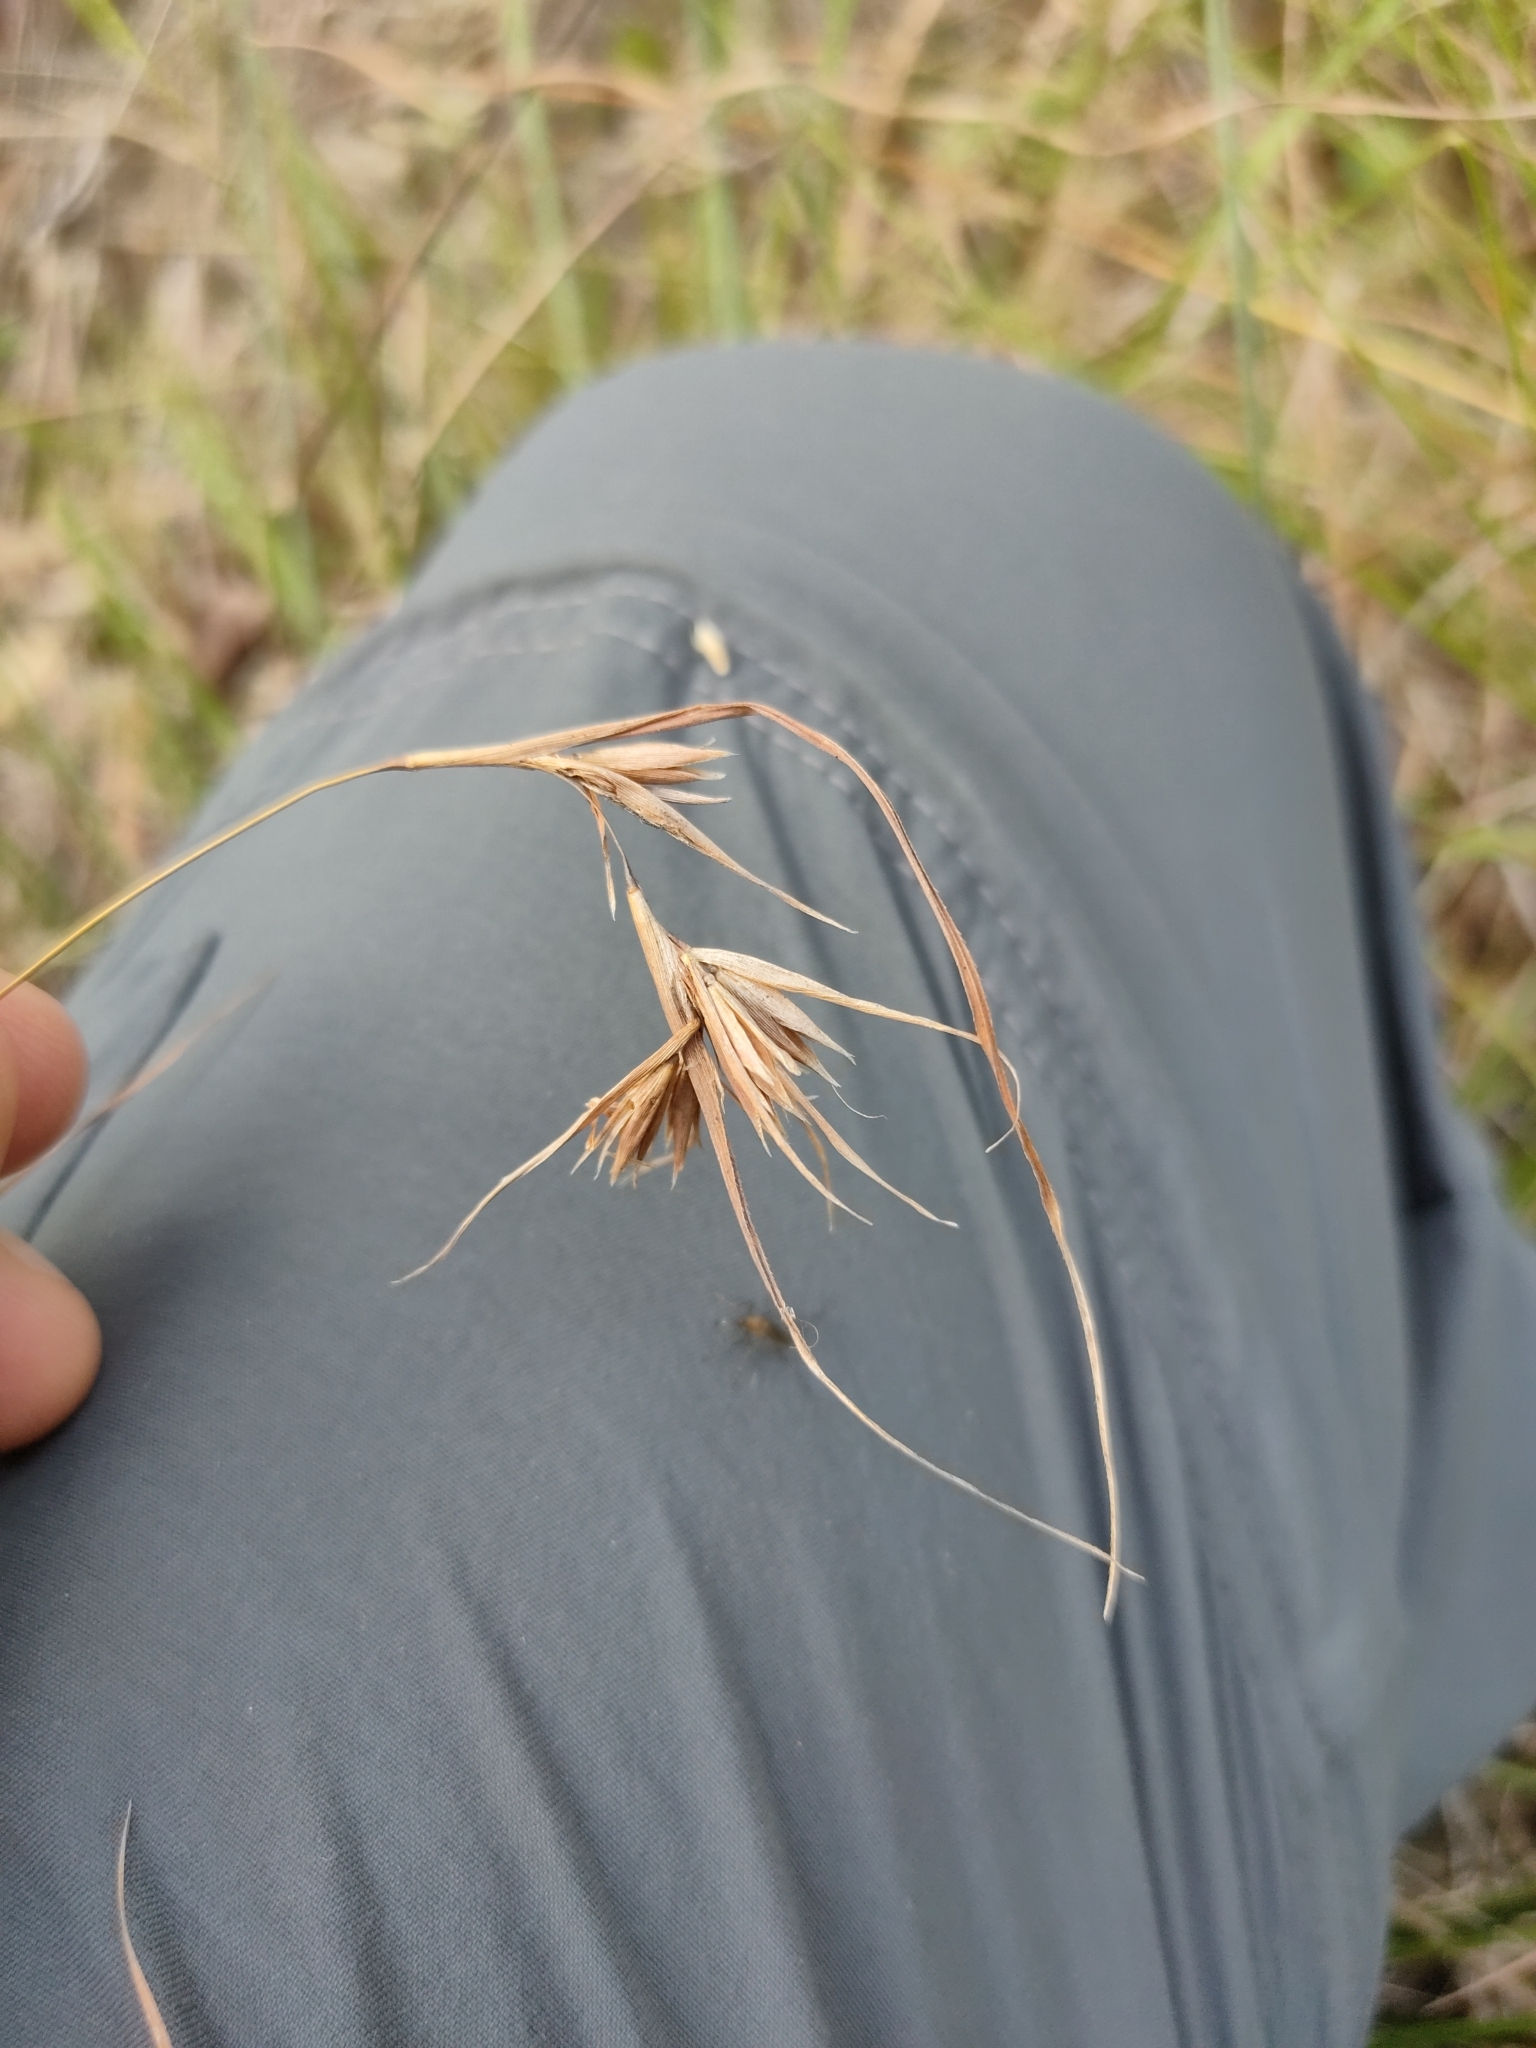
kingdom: Plantae
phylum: Tracheophyta
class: Liliopsida
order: Poales
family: Poaceae
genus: Themeda
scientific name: Themeda triandra
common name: Kangaroo grass
